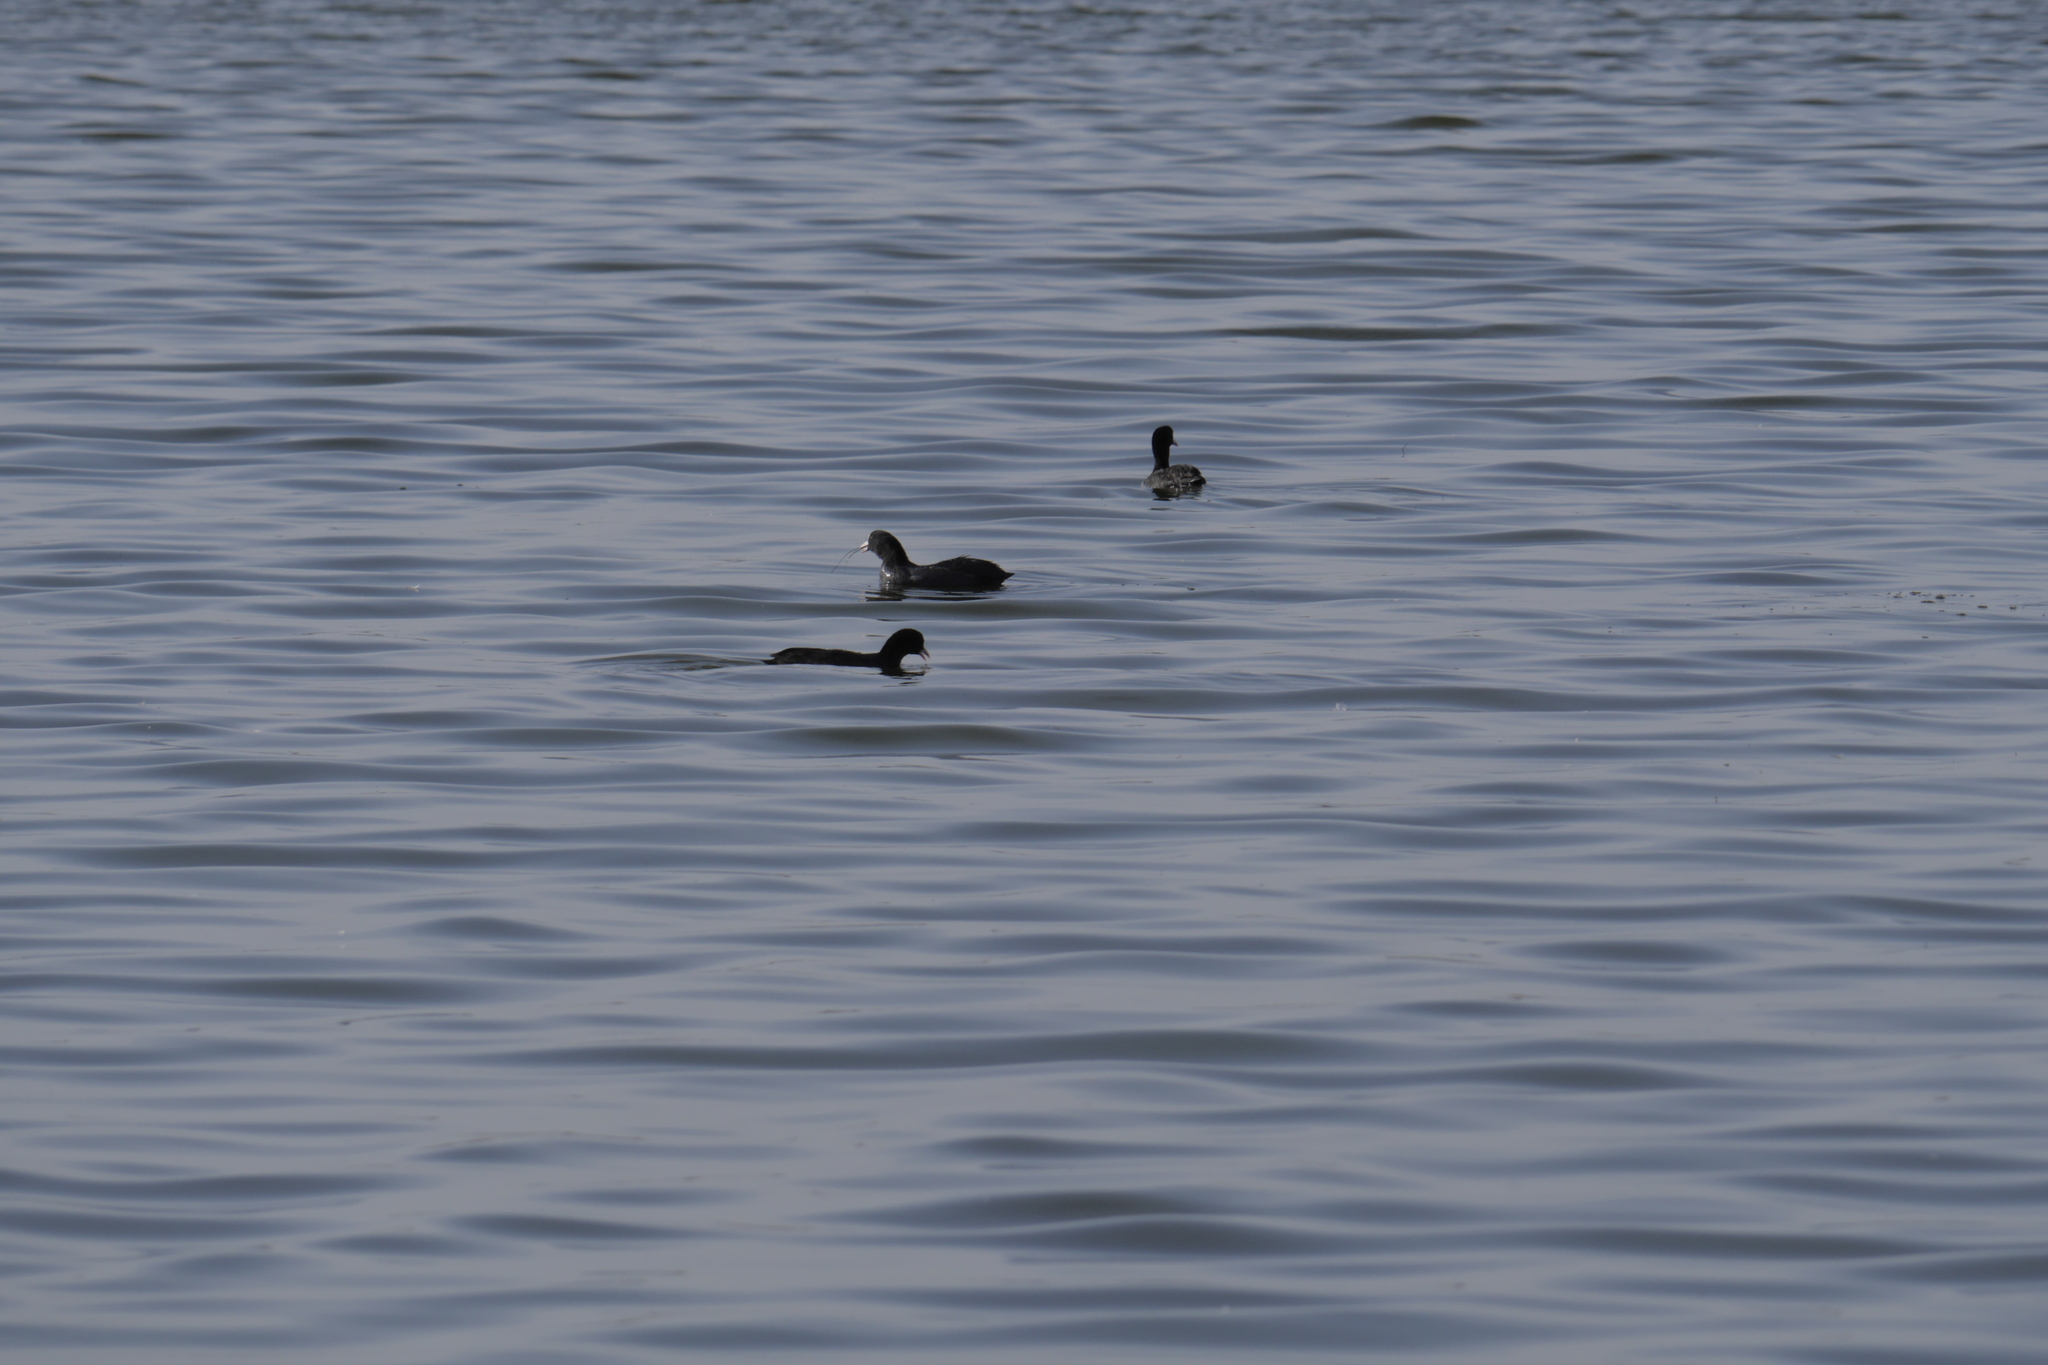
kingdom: Animalia
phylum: Chordata
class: Aves
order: Gruiformes
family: Rallidae
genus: Fulica
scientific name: Fulica atra
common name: Eurasian coot
